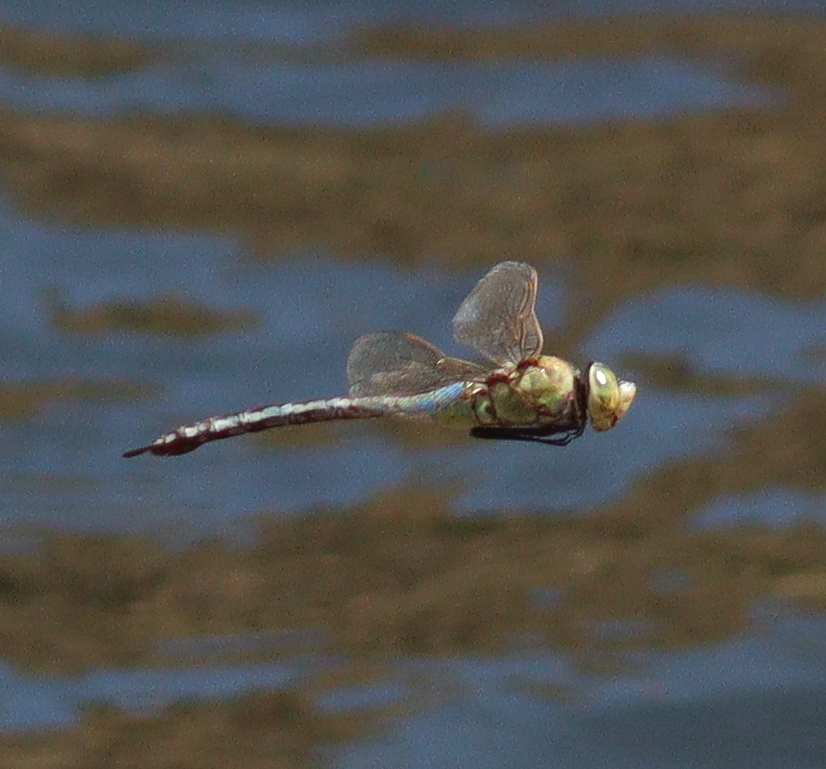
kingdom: Animalia
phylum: Arthropoda
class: Insecta
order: Odonata
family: Aeshnidae
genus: Anax
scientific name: Anax ephippiger
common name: Vagrant emperor
